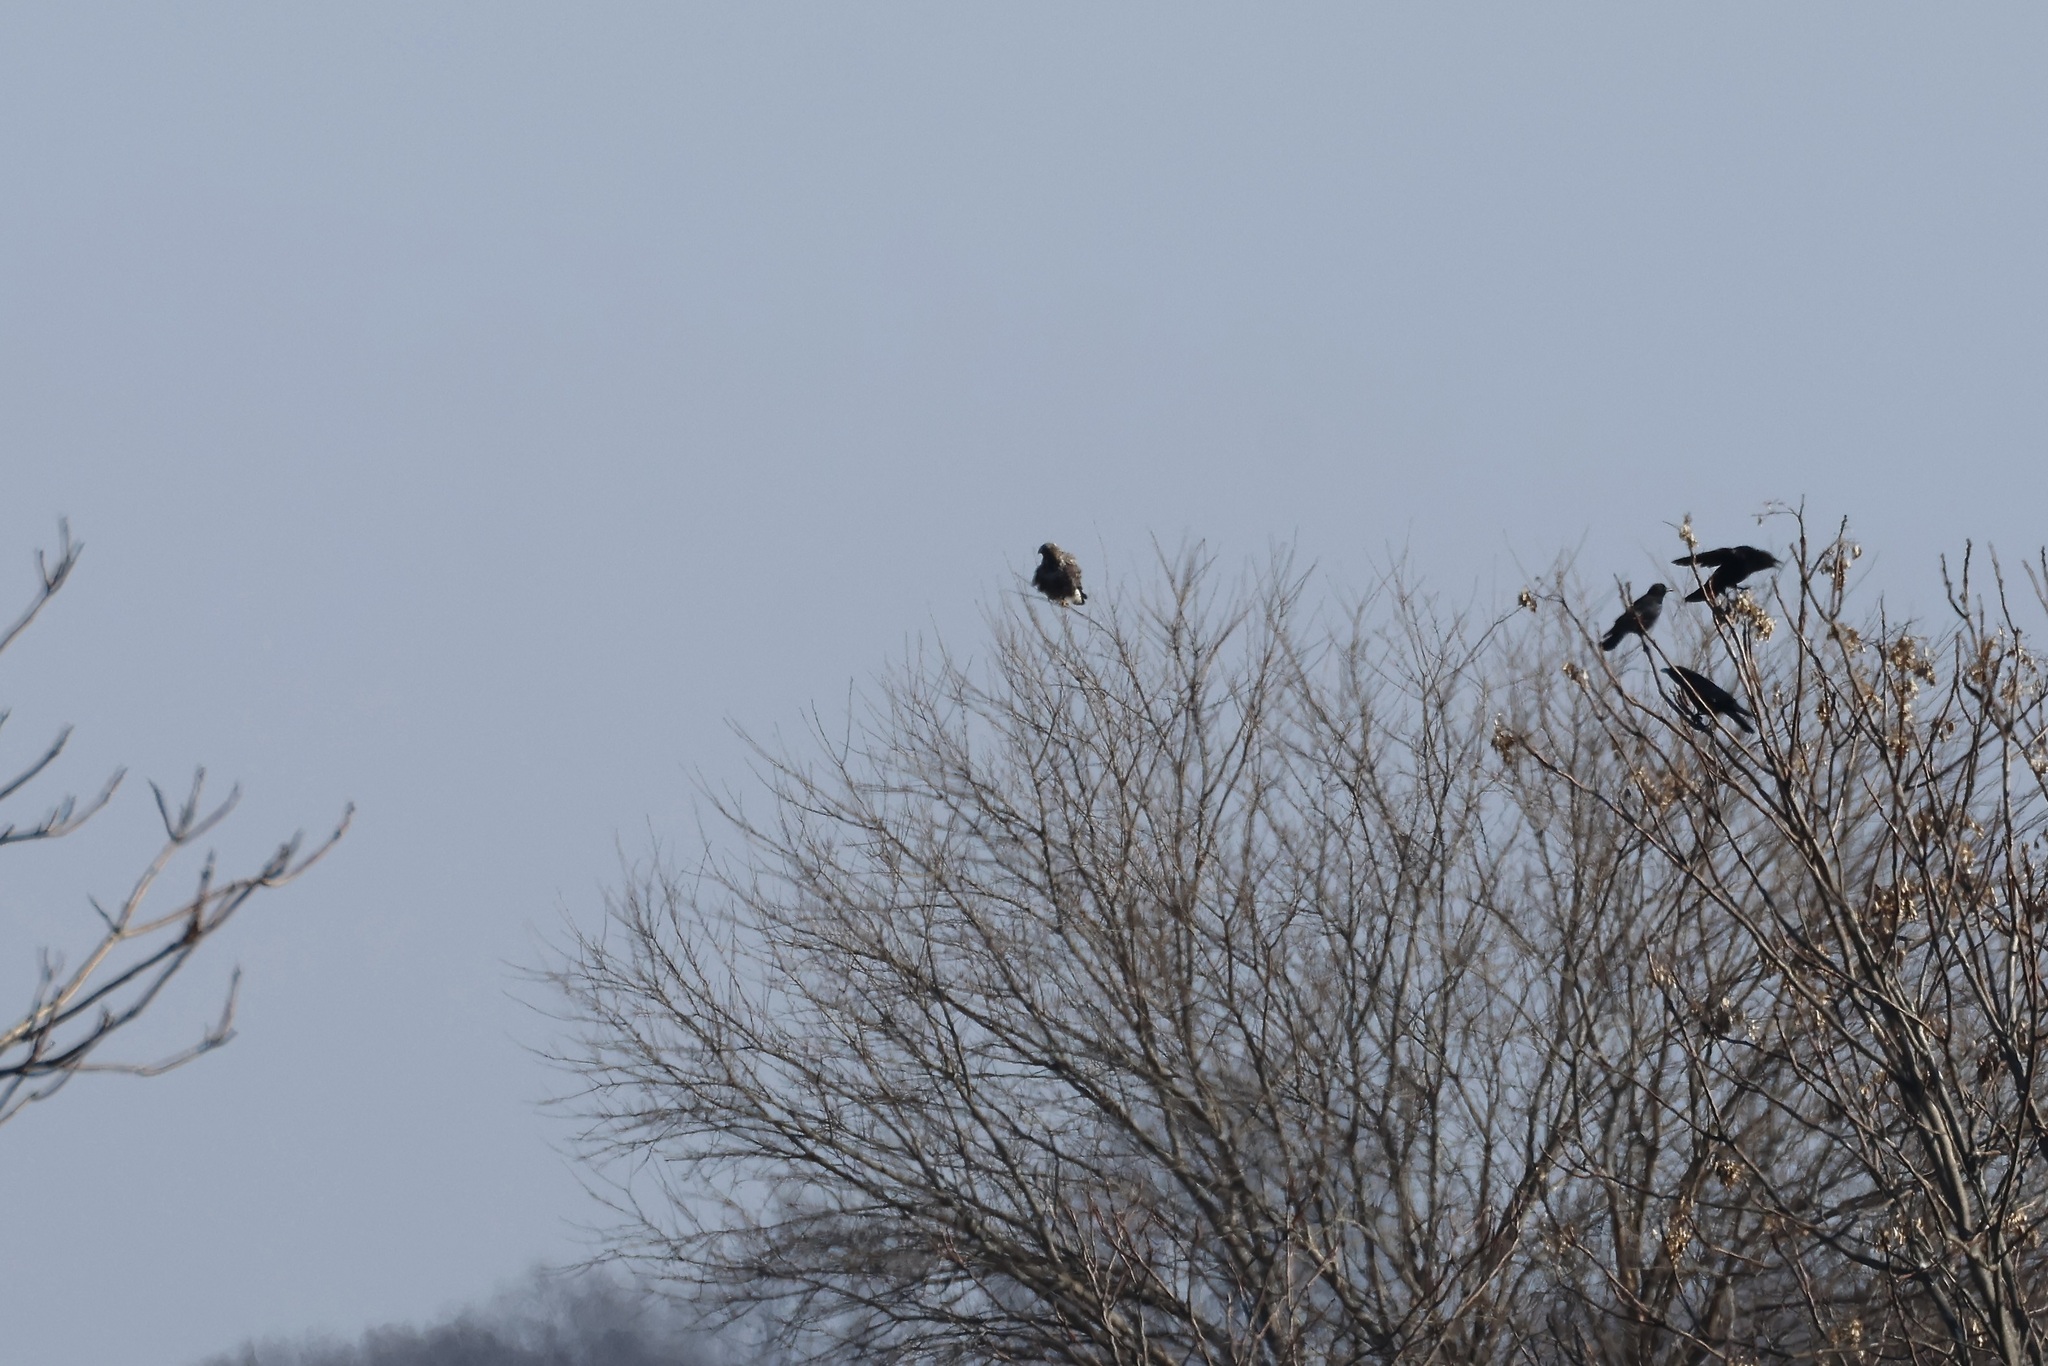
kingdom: Animalia
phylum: Chordata
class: Aves
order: Accipitriformes
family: Accipitridae
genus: Buteo
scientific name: Buteo lagopus
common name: Rough-legged buzzard
